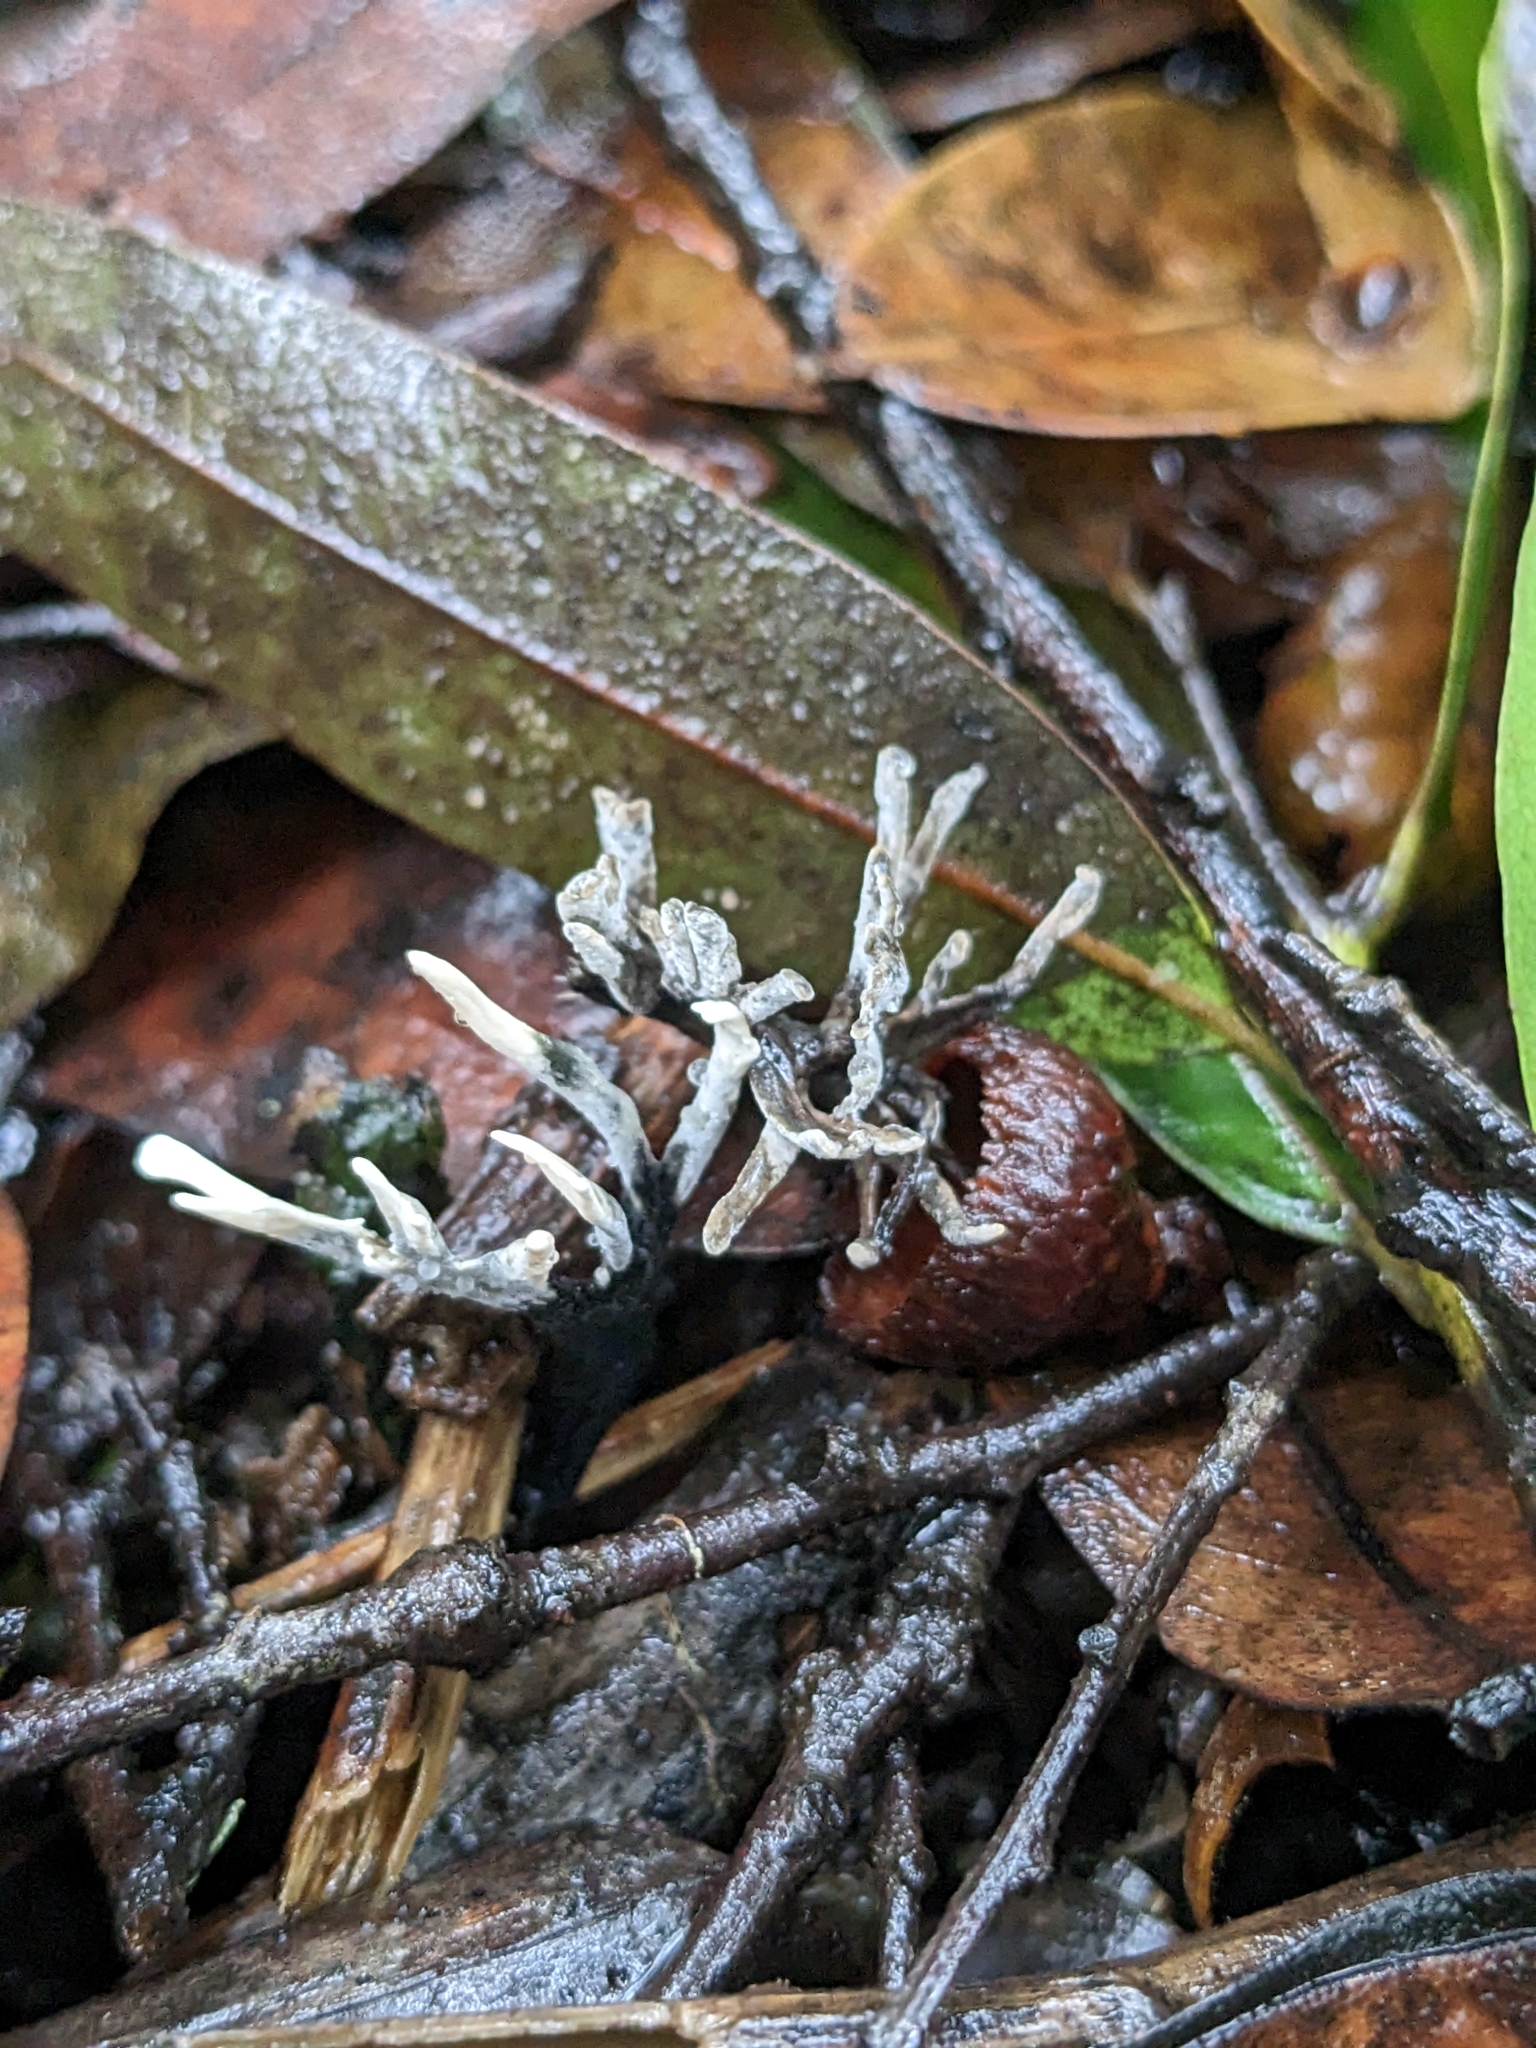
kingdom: Fungi
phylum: Ascomycota
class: Sordariomycetes
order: Xylariales
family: Xylariaceae
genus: Xylaria
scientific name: Xylaria hypoxylon
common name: Candle-snuff fungus
